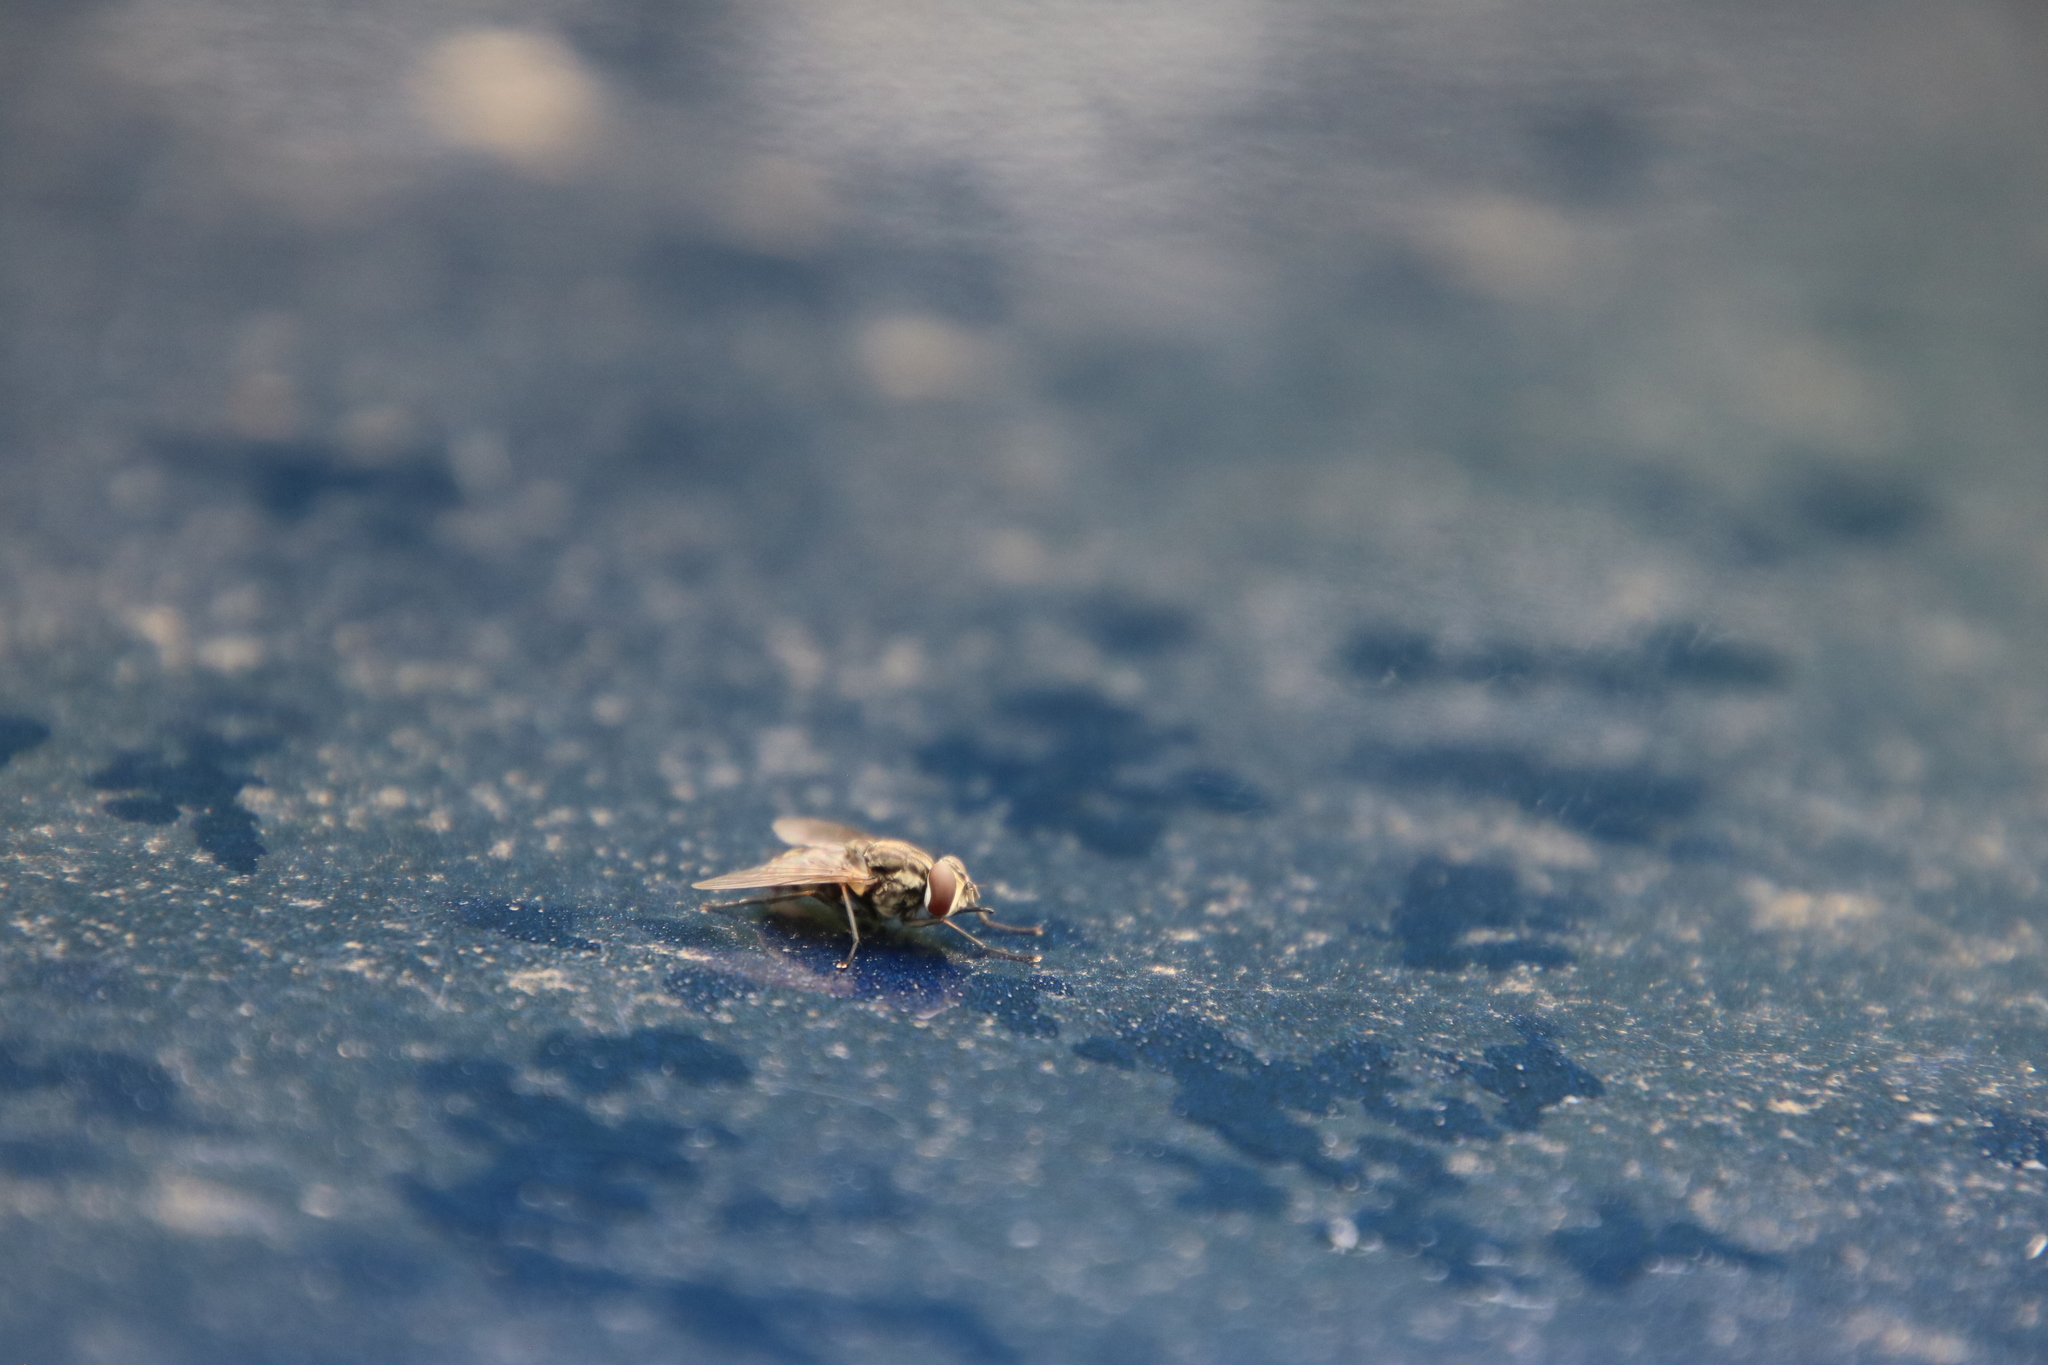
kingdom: Animalia
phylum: Arthropoda
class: Insecta
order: Diptera
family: Muscidae
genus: Stomoxys
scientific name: Stomoxys calcitrans
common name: Stable fly
